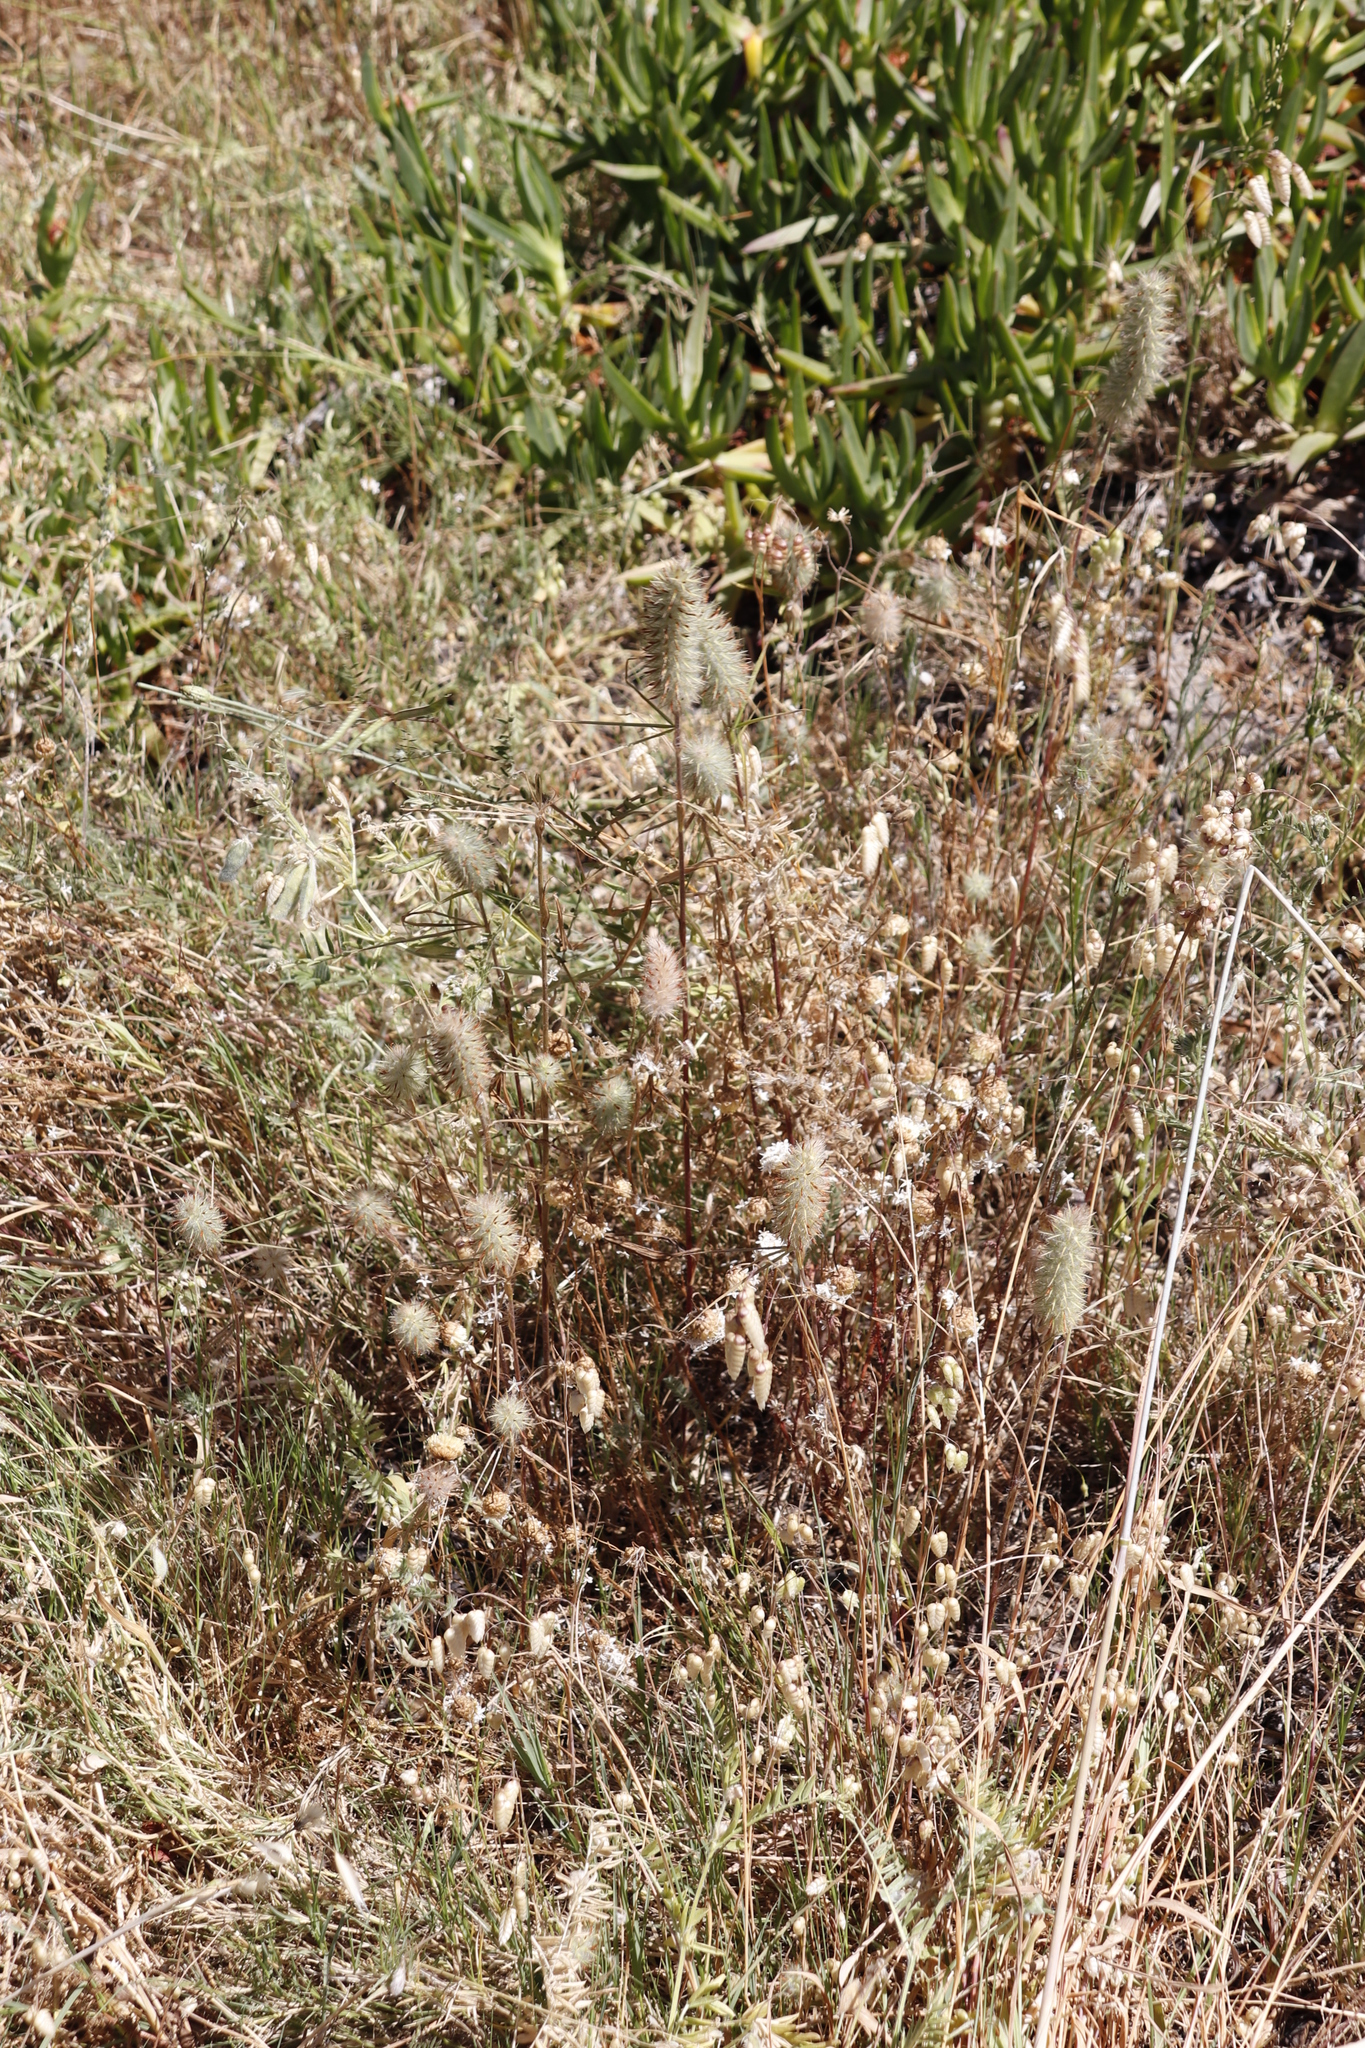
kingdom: Plantae
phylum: Tracheophyta
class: Magnoliopsida
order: Fabales
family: Fabaceae
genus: Trifolium
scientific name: Trifolium angustifolium
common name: Narrow clover
